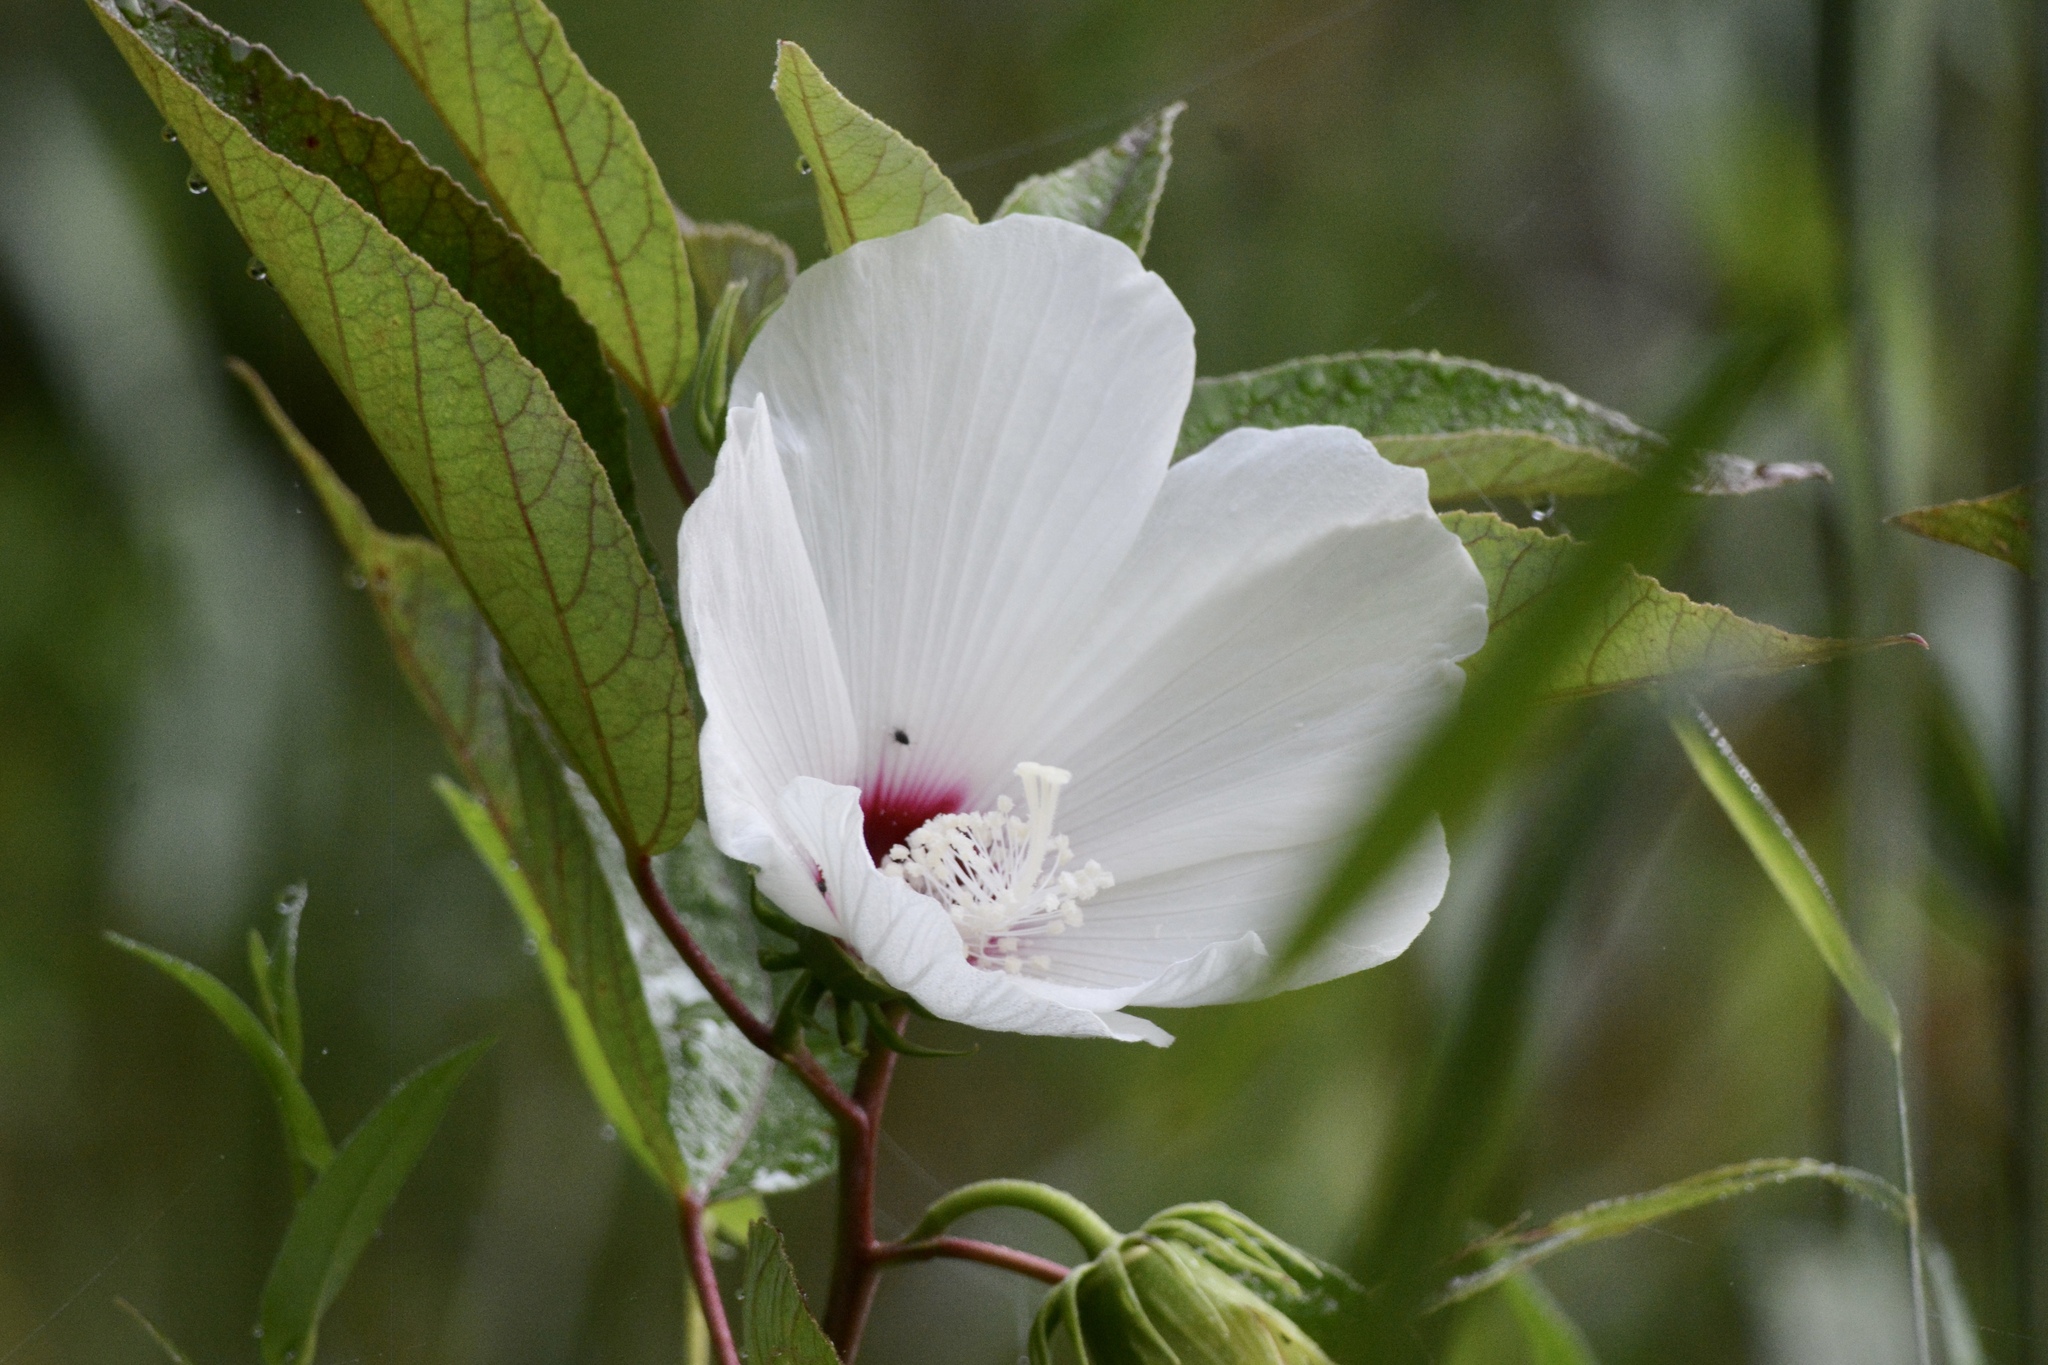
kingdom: Plantae
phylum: Tracheophyta
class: Magnoliopsida
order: Malvales
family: Malvaceae
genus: Hibiscus
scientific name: Hibiscus moscheutos
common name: Common rose-mallow
